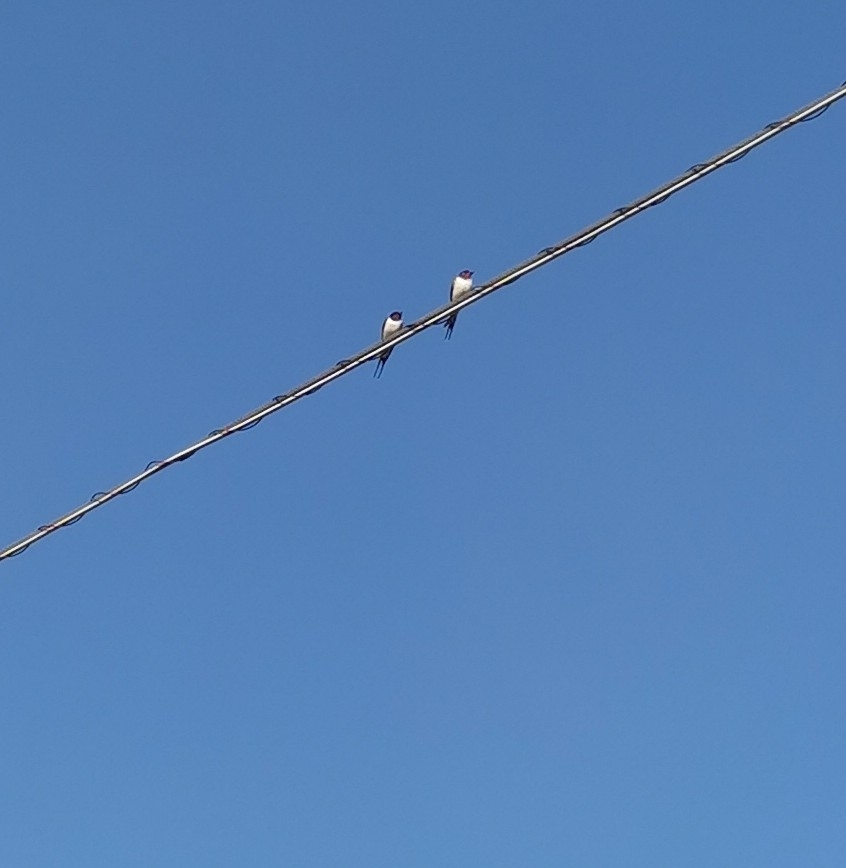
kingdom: Animalia
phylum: Chordata
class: Aves
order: Passeriformes
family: Hirundinidae
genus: Hirundo
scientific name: Hirundo rustica
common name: Barn swallow
